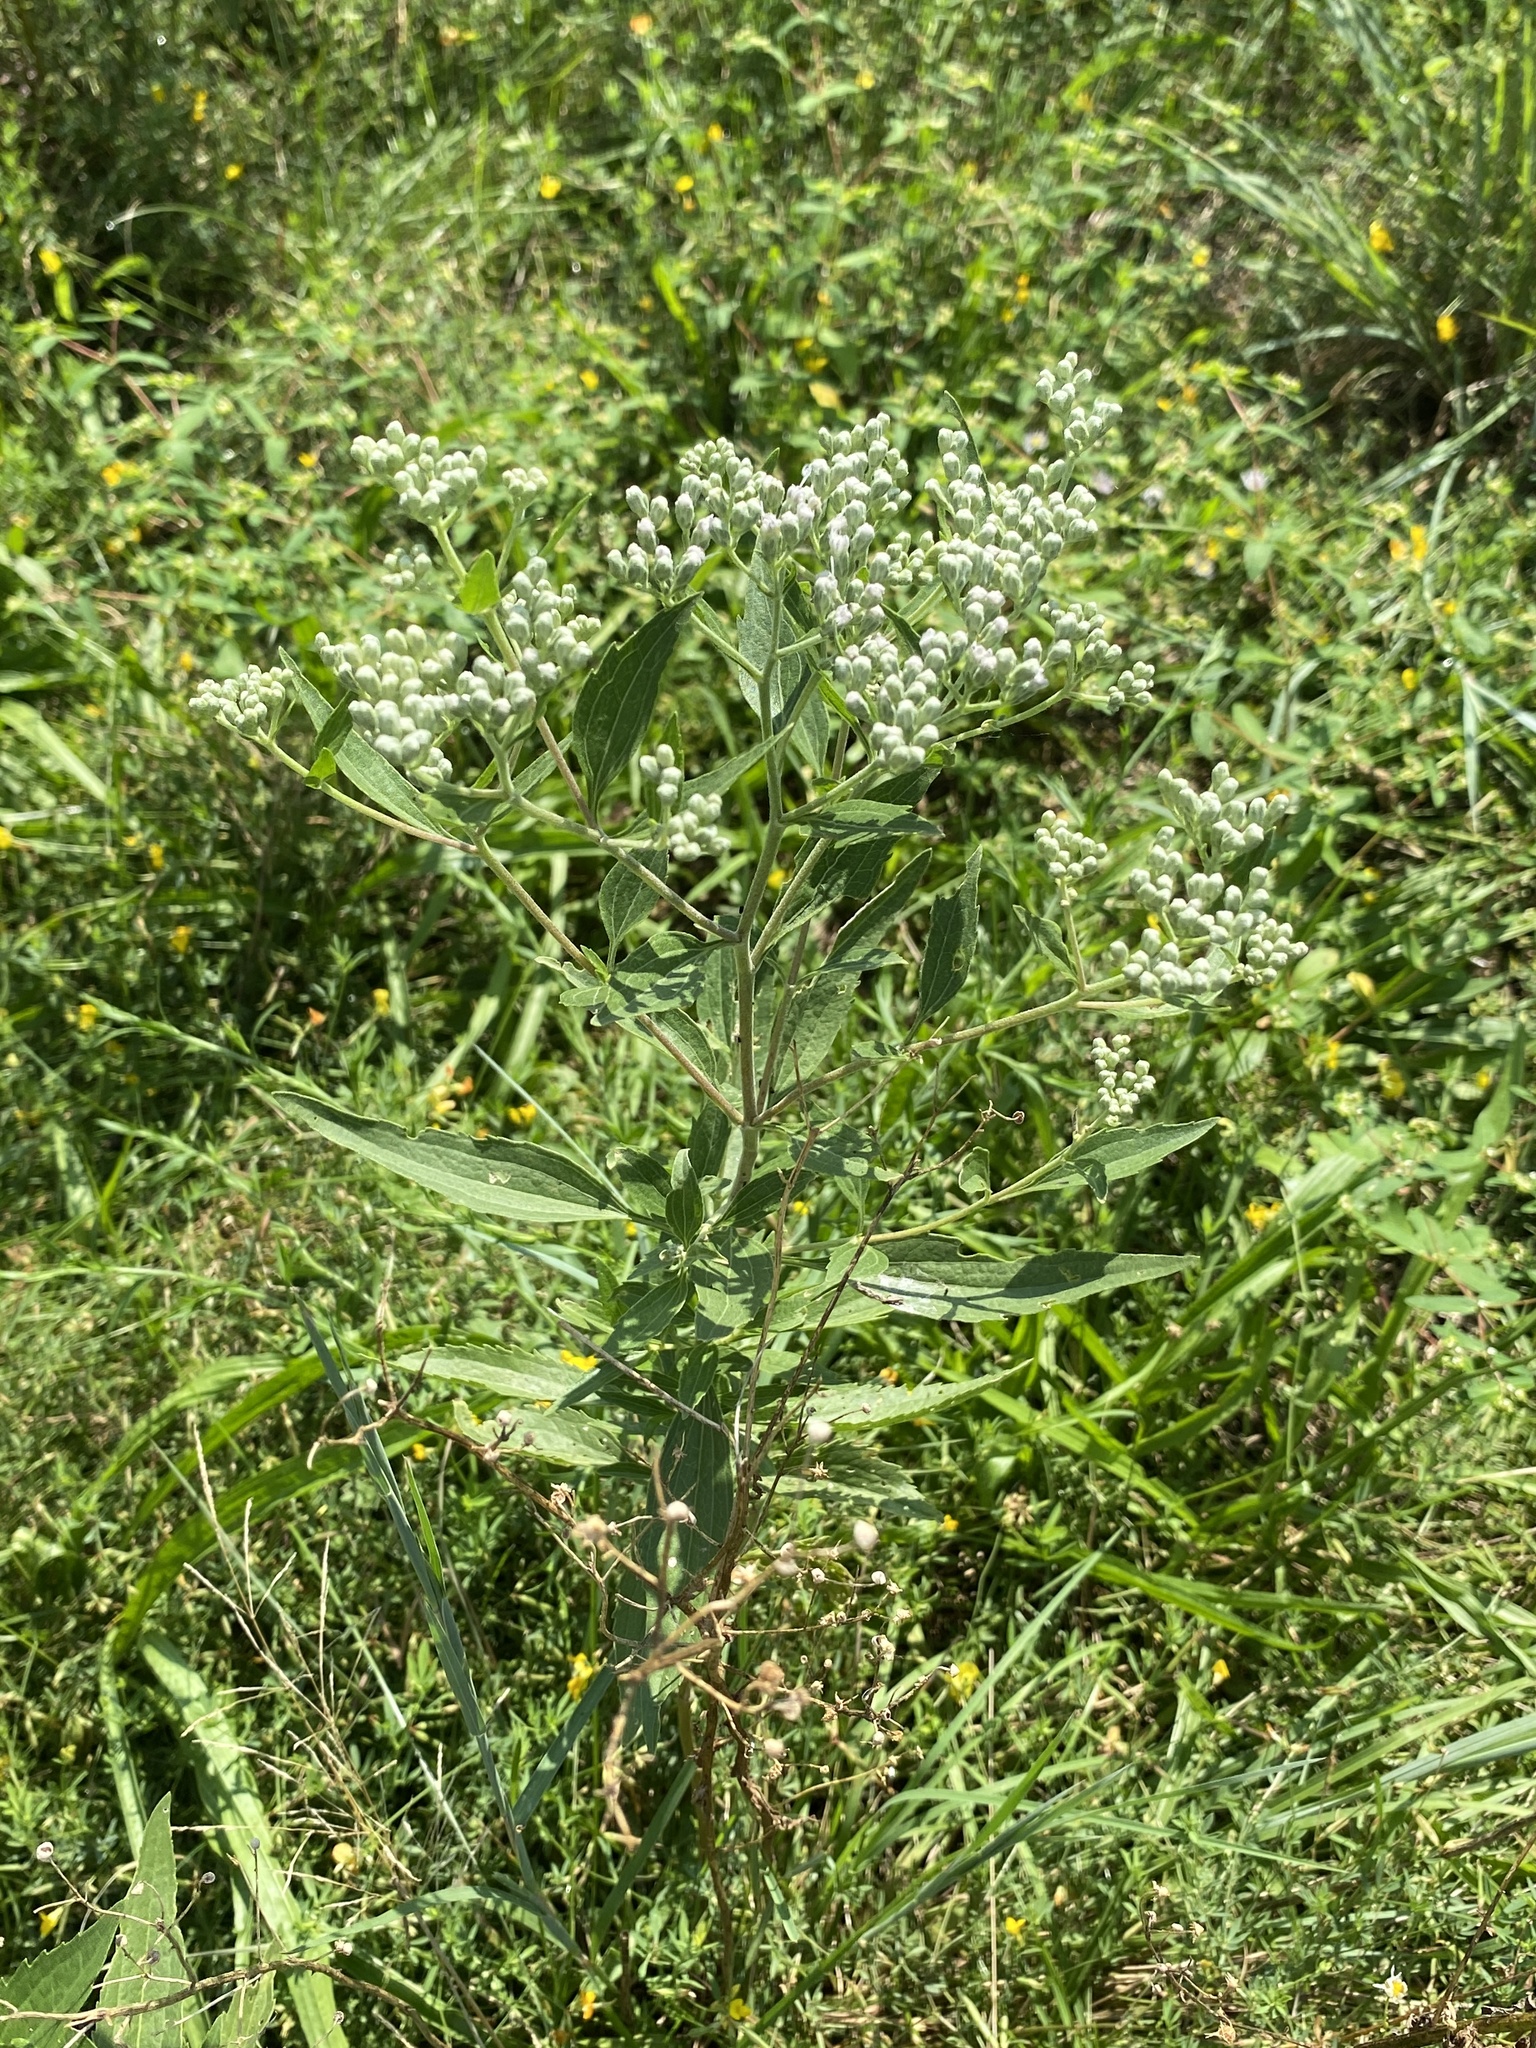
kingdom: Plantae
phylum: Tracheophyta
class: Magnoliopsida
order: Asterales
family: Asteraceae
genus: Eupatorium
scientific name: Eupatorium serotinum
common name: Late boneset
